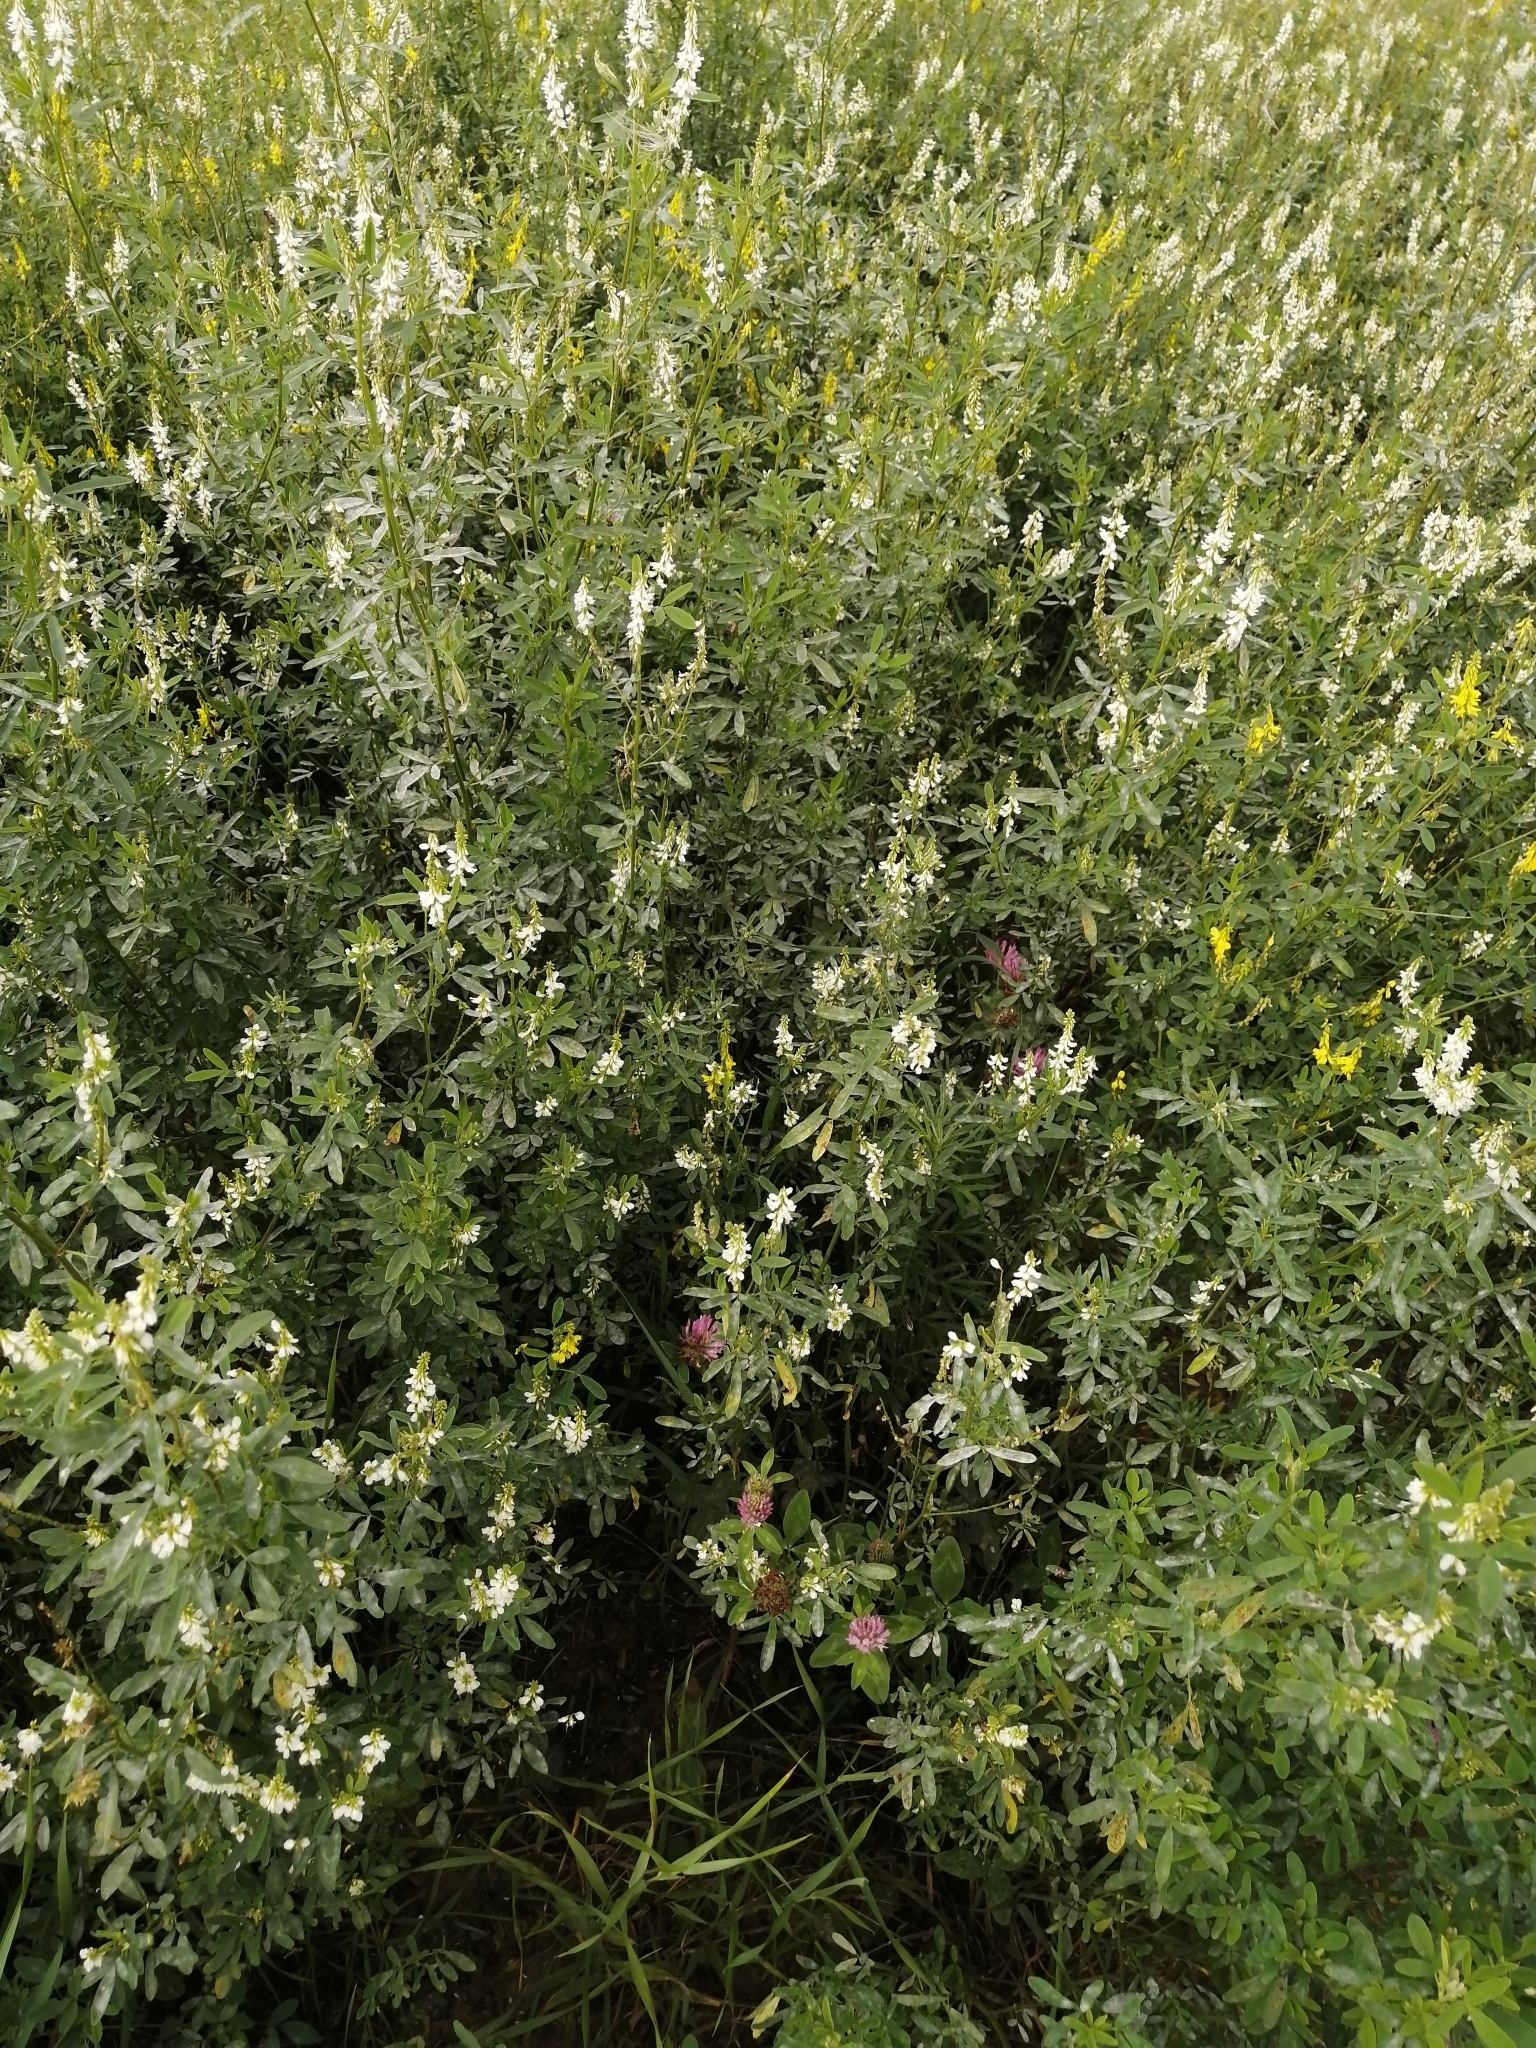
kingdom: Plantae
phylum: Tracheophyta
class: Magnoliopsida
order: Fabales
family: Fabaceae
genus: Melilotus
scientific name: Melilotus albus
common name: White melilot
